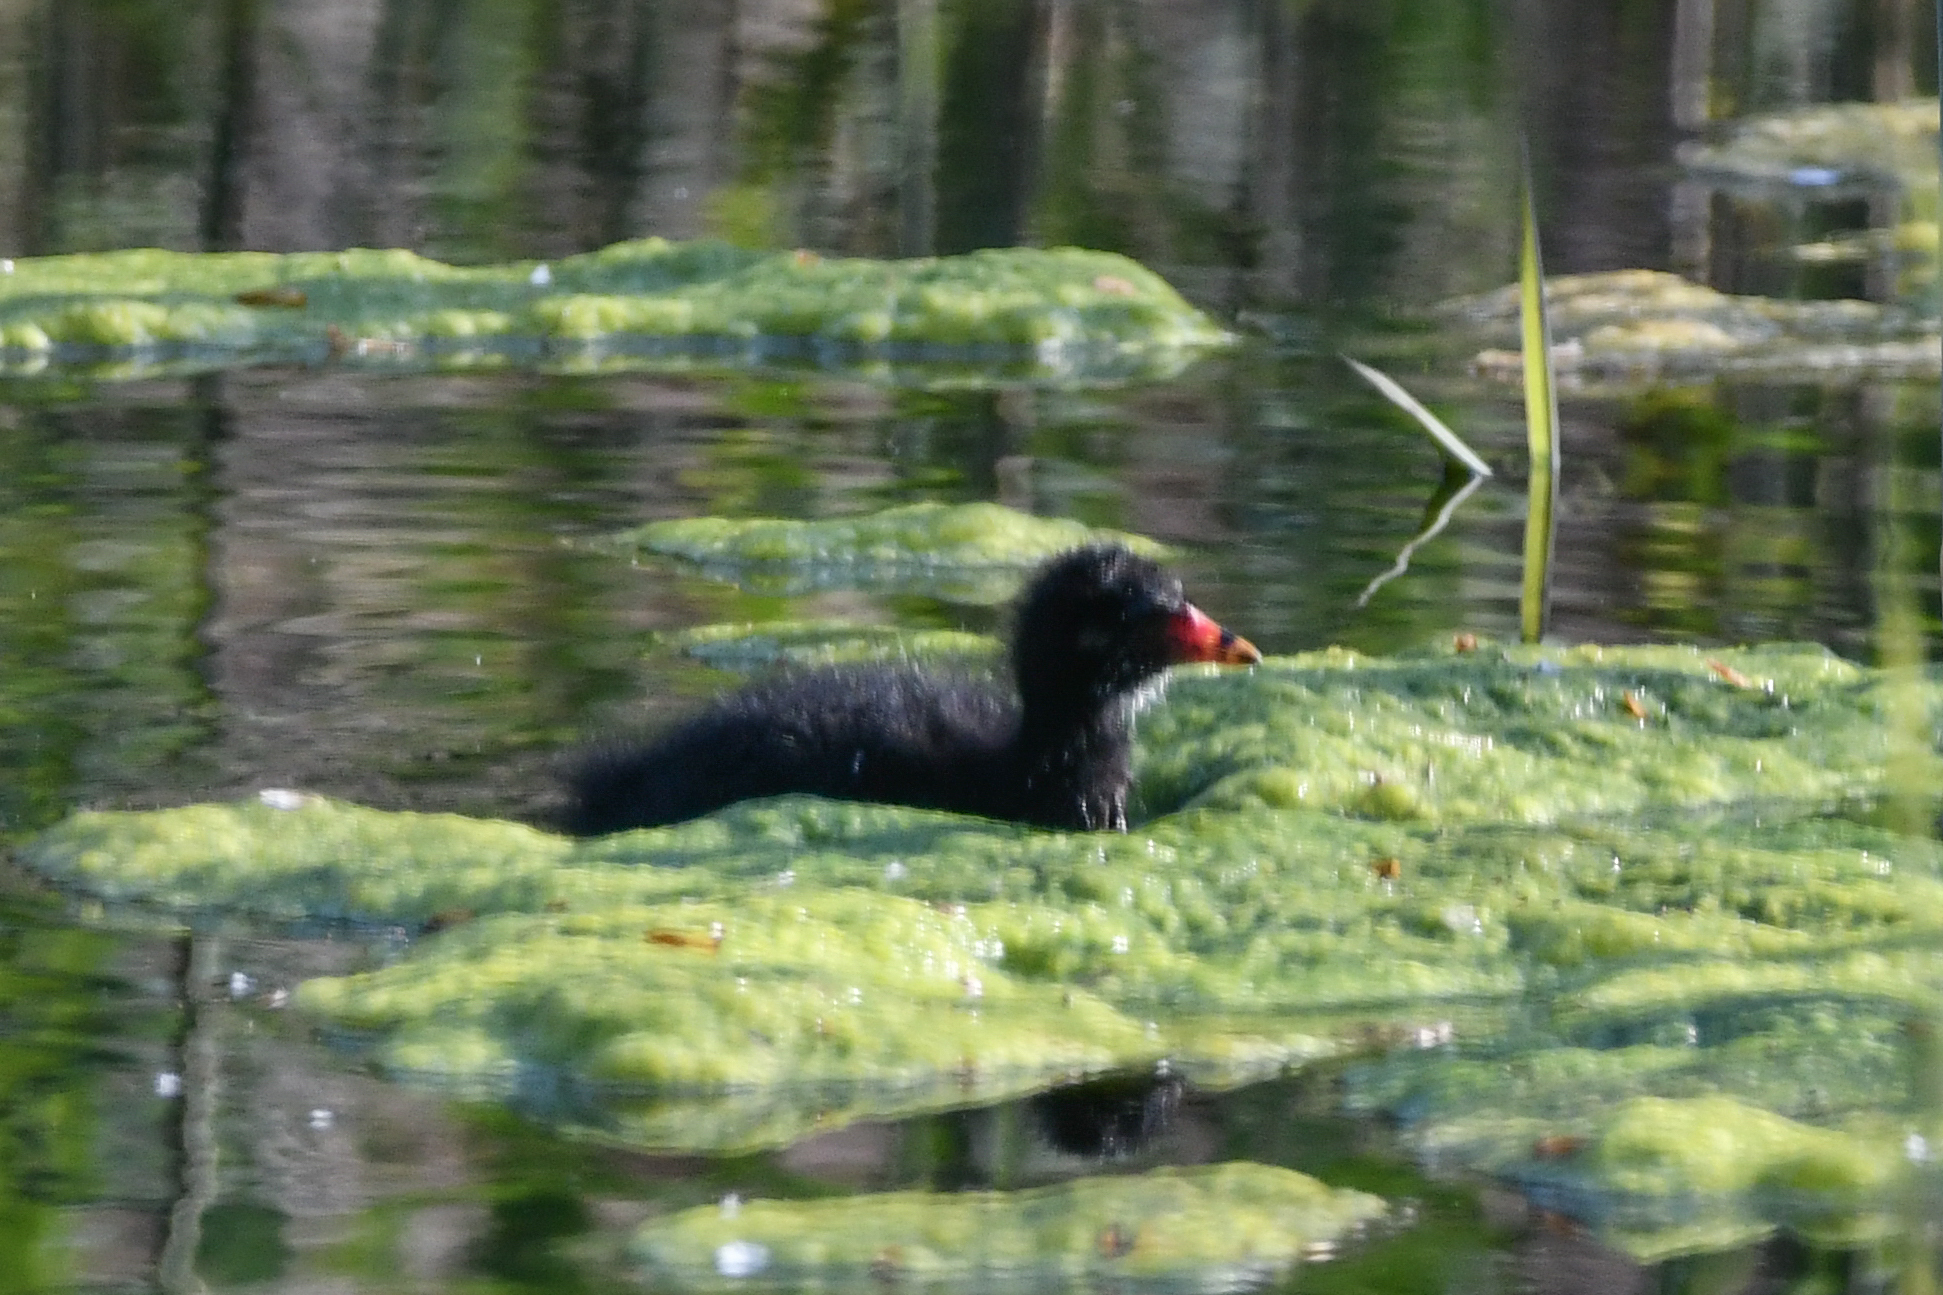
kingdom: Animalia
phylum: Chordata
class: Aves
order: Gruiformes
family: Rallidae
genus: Gallinula
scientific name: Gallinula chloropus
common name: Common moorhen
